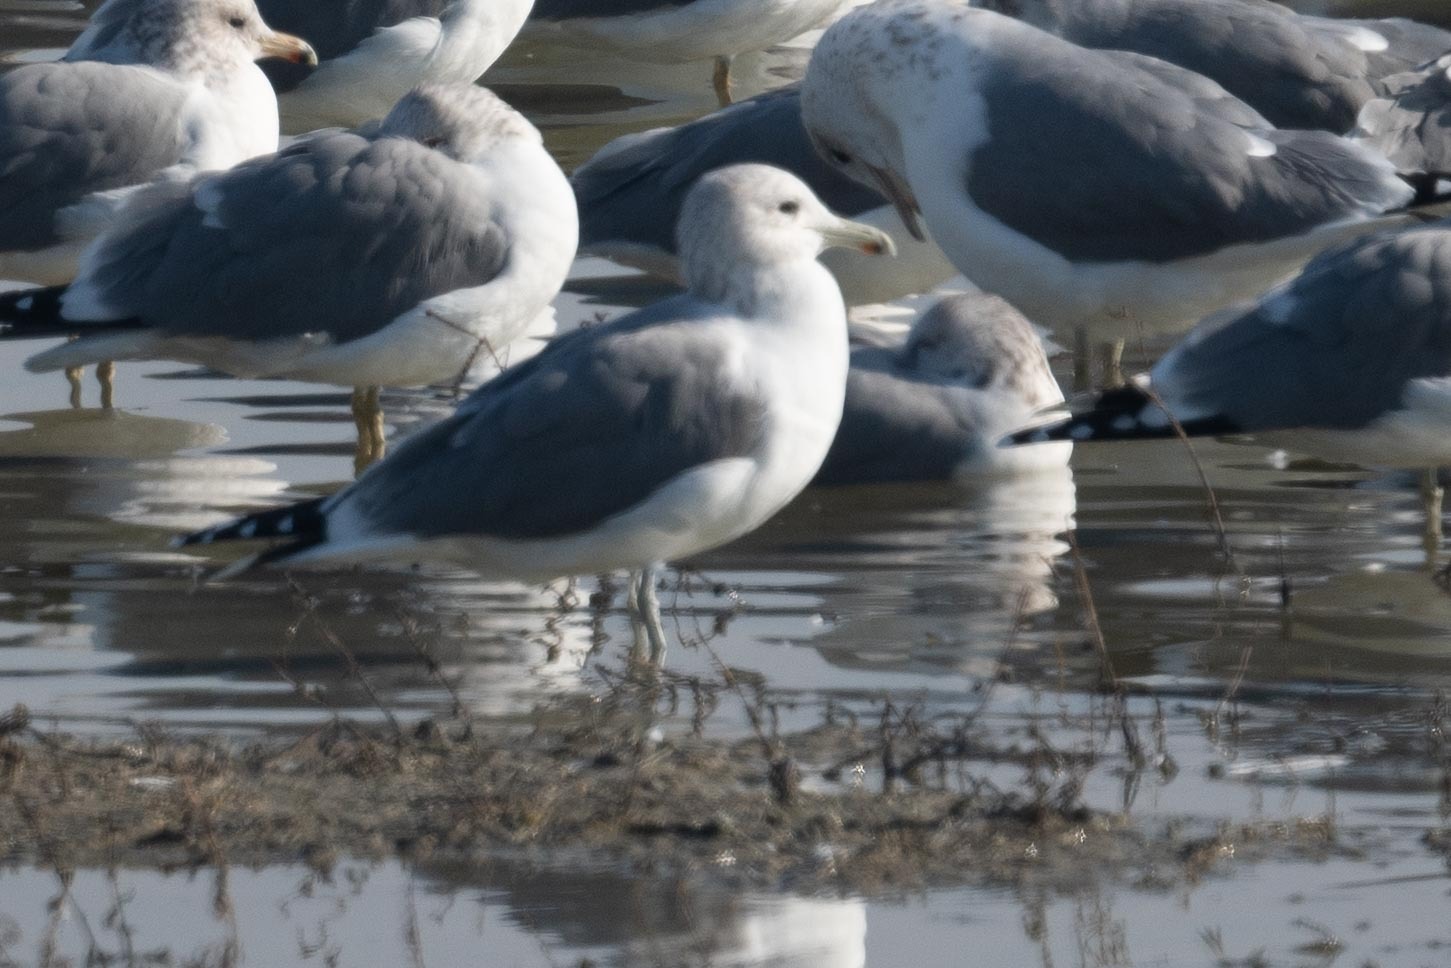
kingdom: Animalia
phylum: Chordata
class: Aves
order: Charadriiformes
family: Laridae
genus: Larus
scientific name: Larus californicus
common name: California gull
